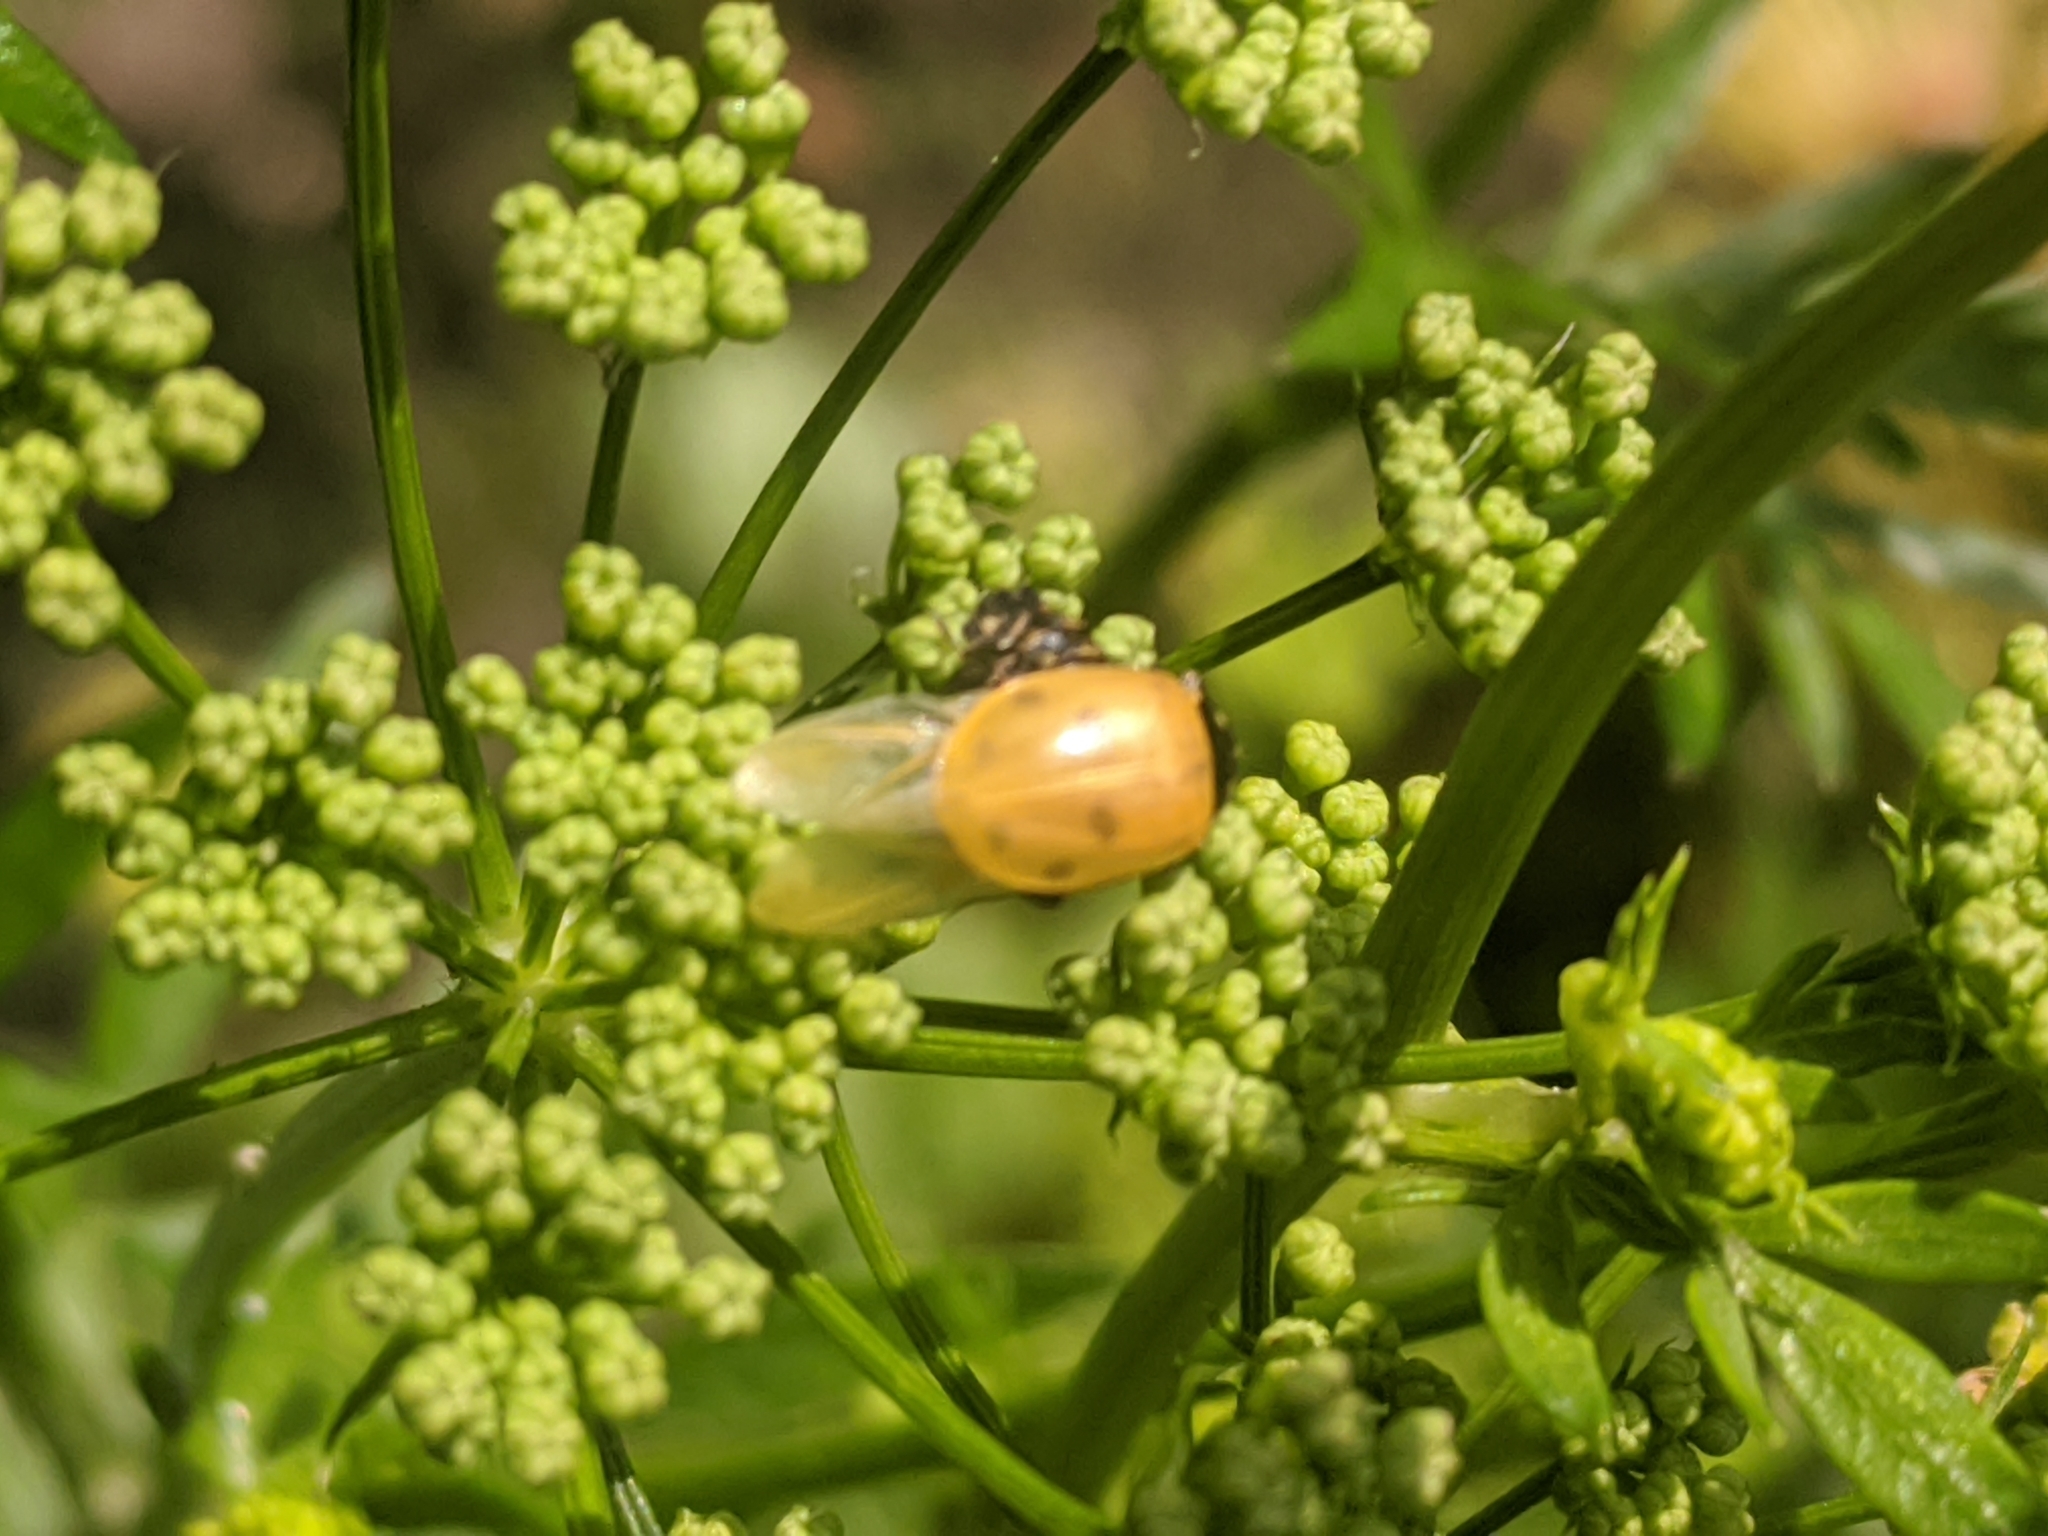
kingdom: Animalia
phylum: Arthropoda
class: Insecta
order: Coleoptera
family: Coccinellidae
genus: Hippodamia
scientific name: Hippodamia variegata
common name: Ladybird beetle
